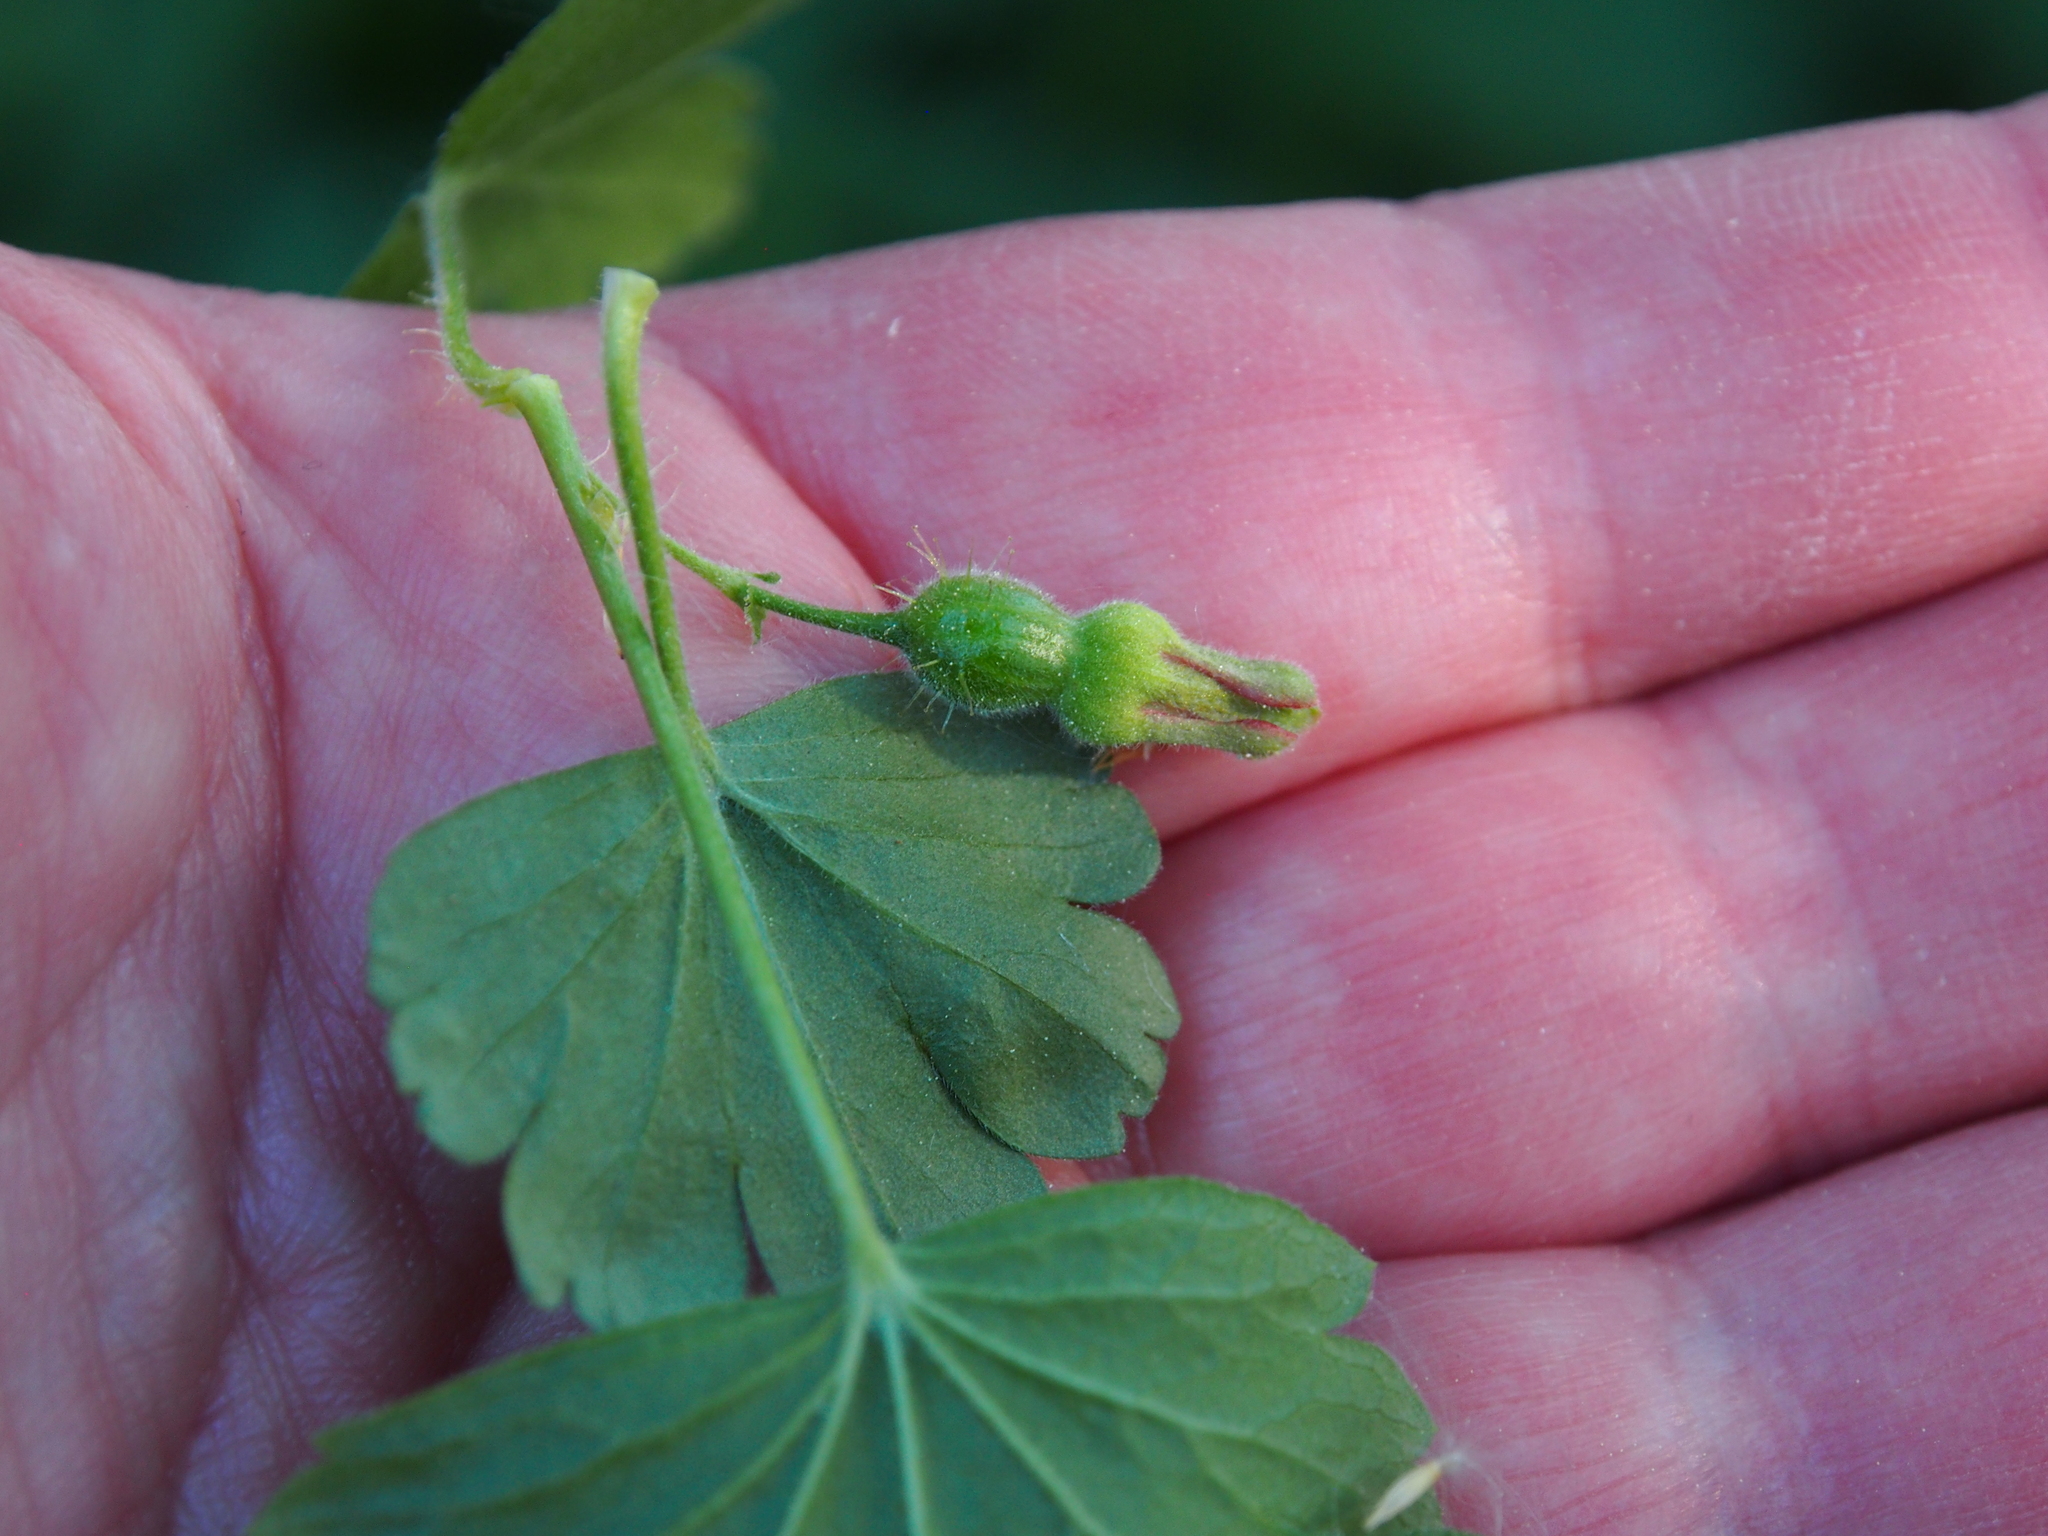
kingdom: Plantae
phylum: Tracheophyta
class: Magnoliopsida
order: Saxifragales
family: Grossulariaceae
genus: Ribes
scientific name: Ribes alpinum
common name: Alpine currant
